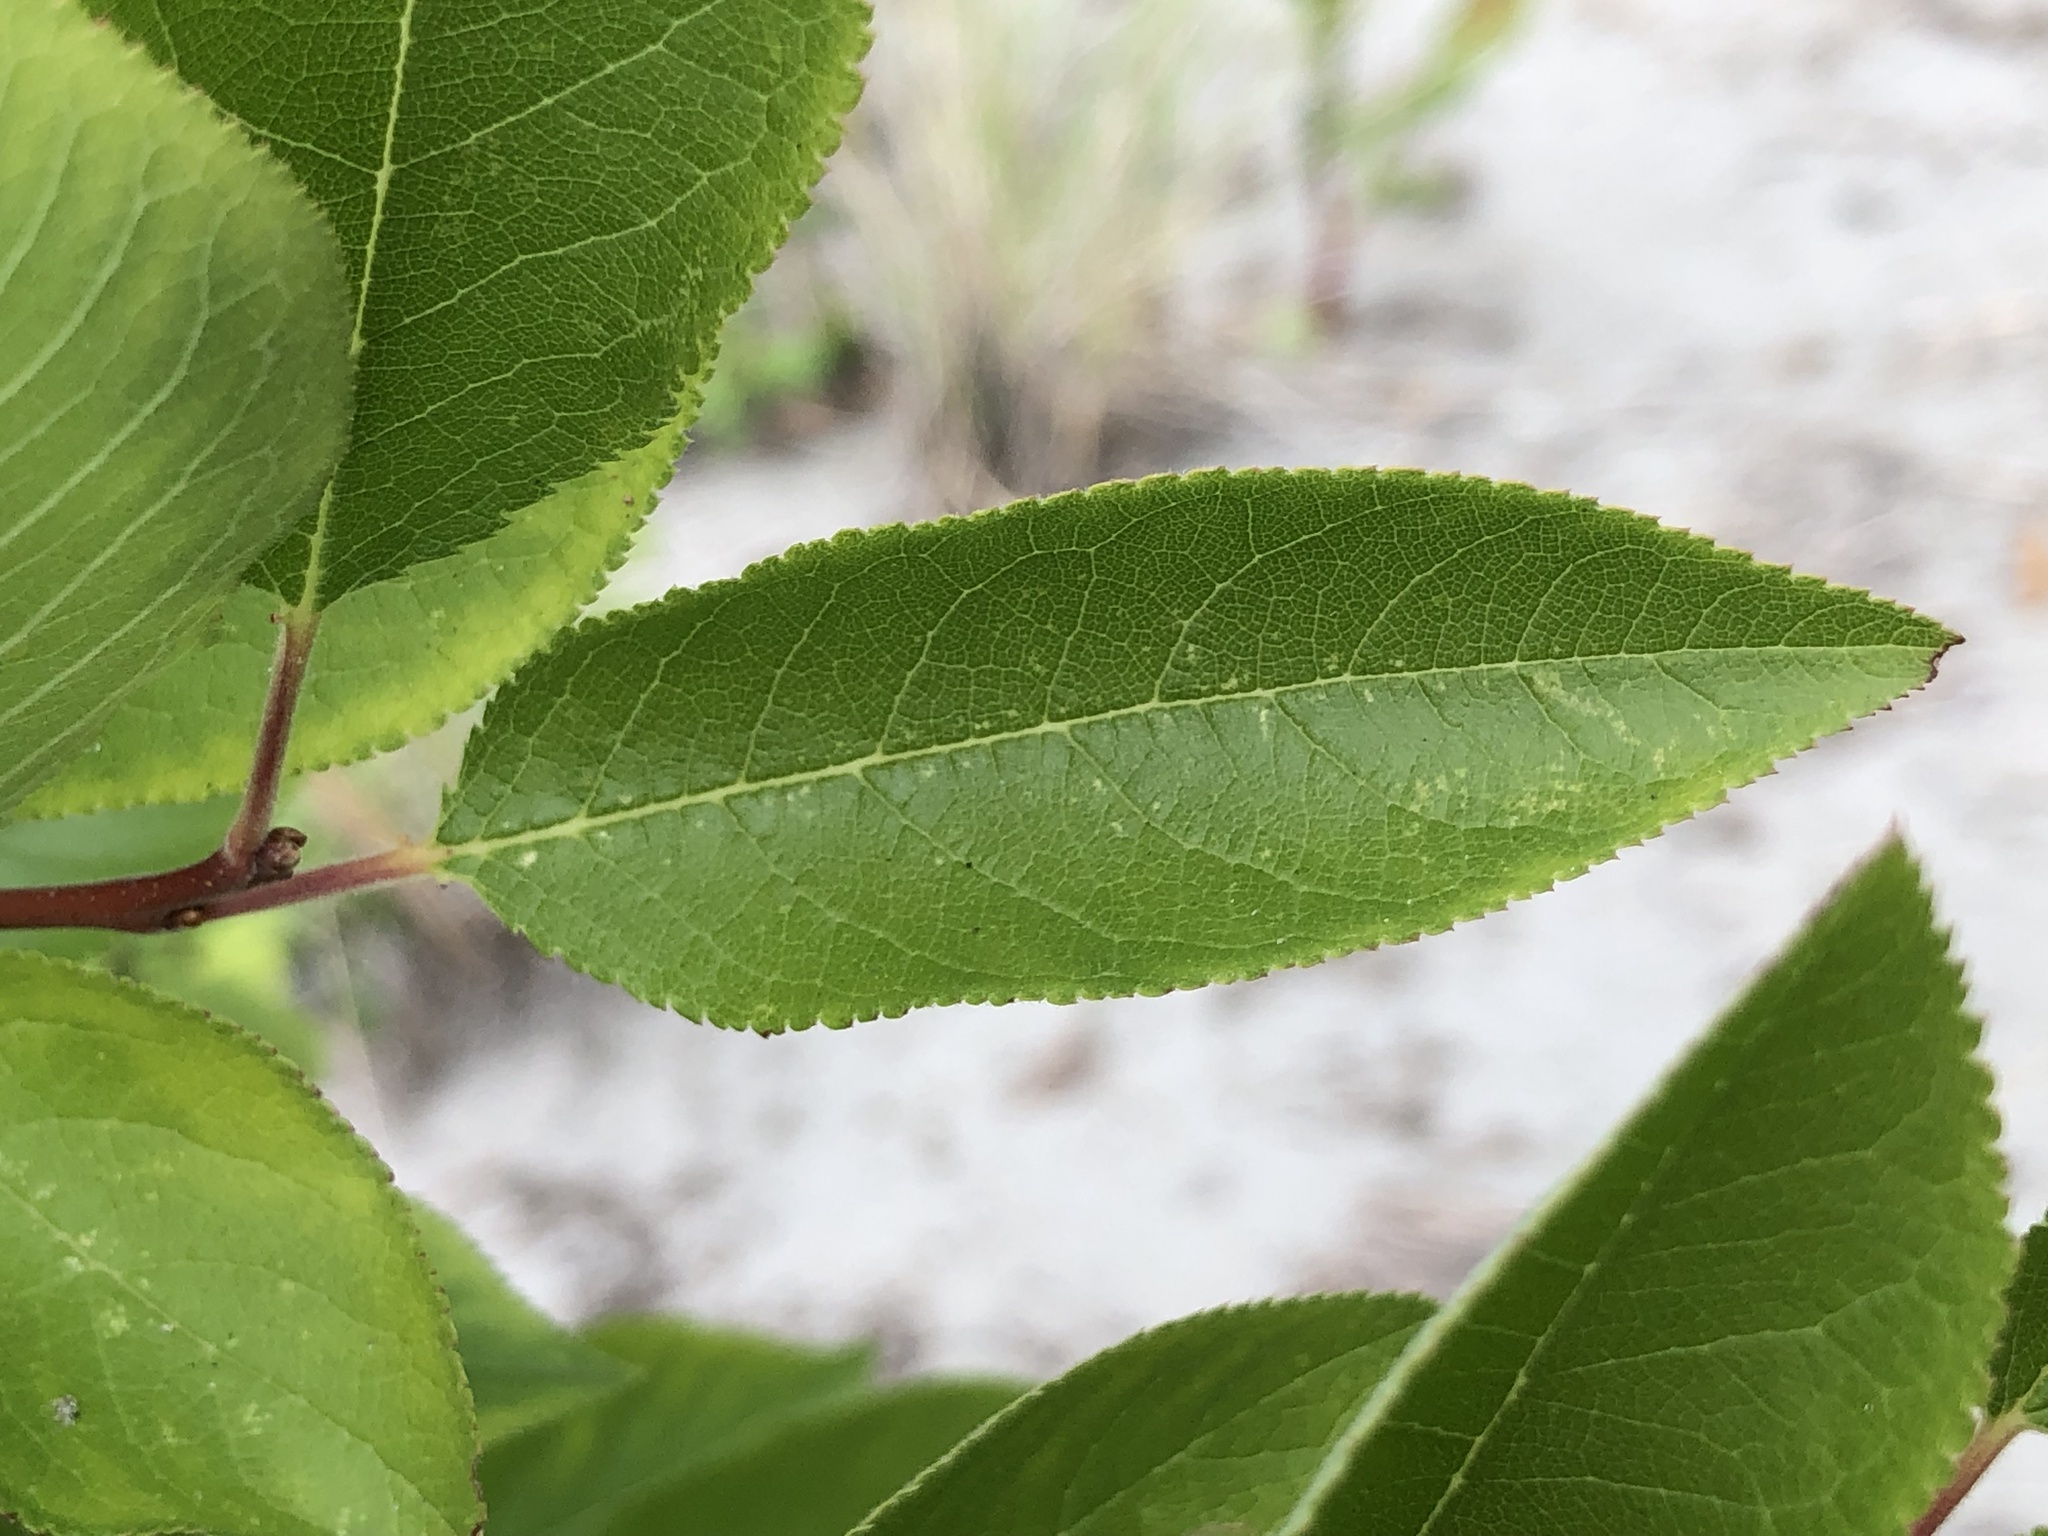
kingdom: Plantae
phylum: Tracheophyta
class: Magnoliopsida
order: Rosales
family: Rosaceae
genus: Prunus
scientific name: Prunus maritima
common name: Beach plum
